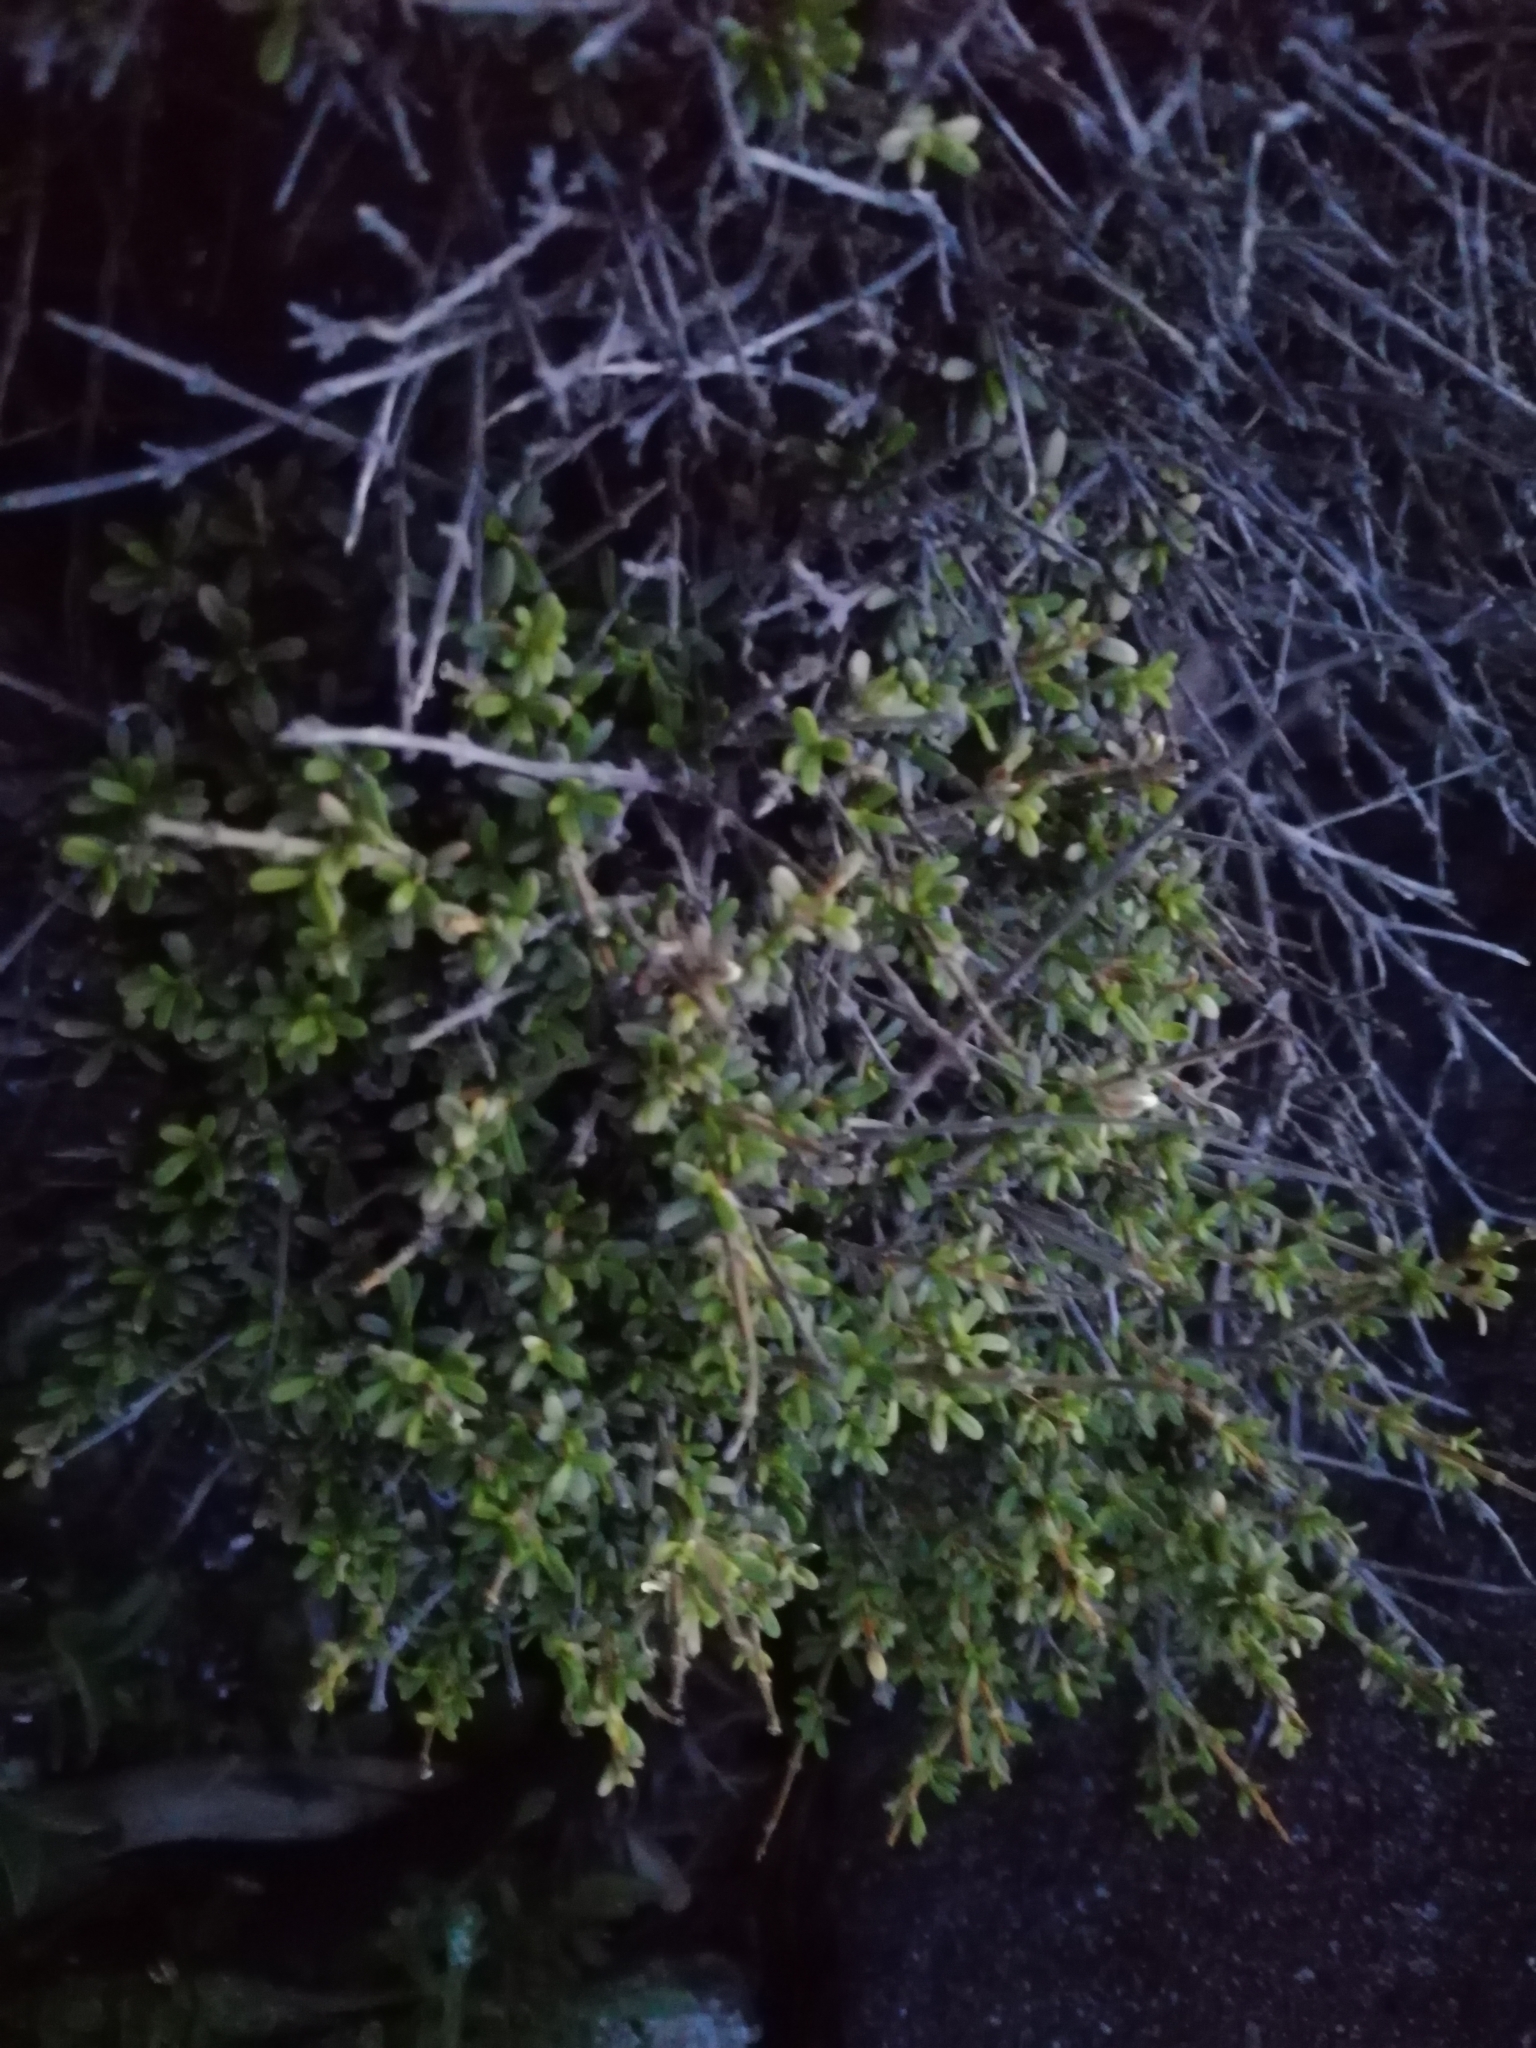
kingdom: Plantae
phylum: Tracheophyta
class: Magnoliopsida
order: Asterales
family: Asteraceae
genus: Olearia
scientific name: Olearia solandri
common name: Coastal daisybush
